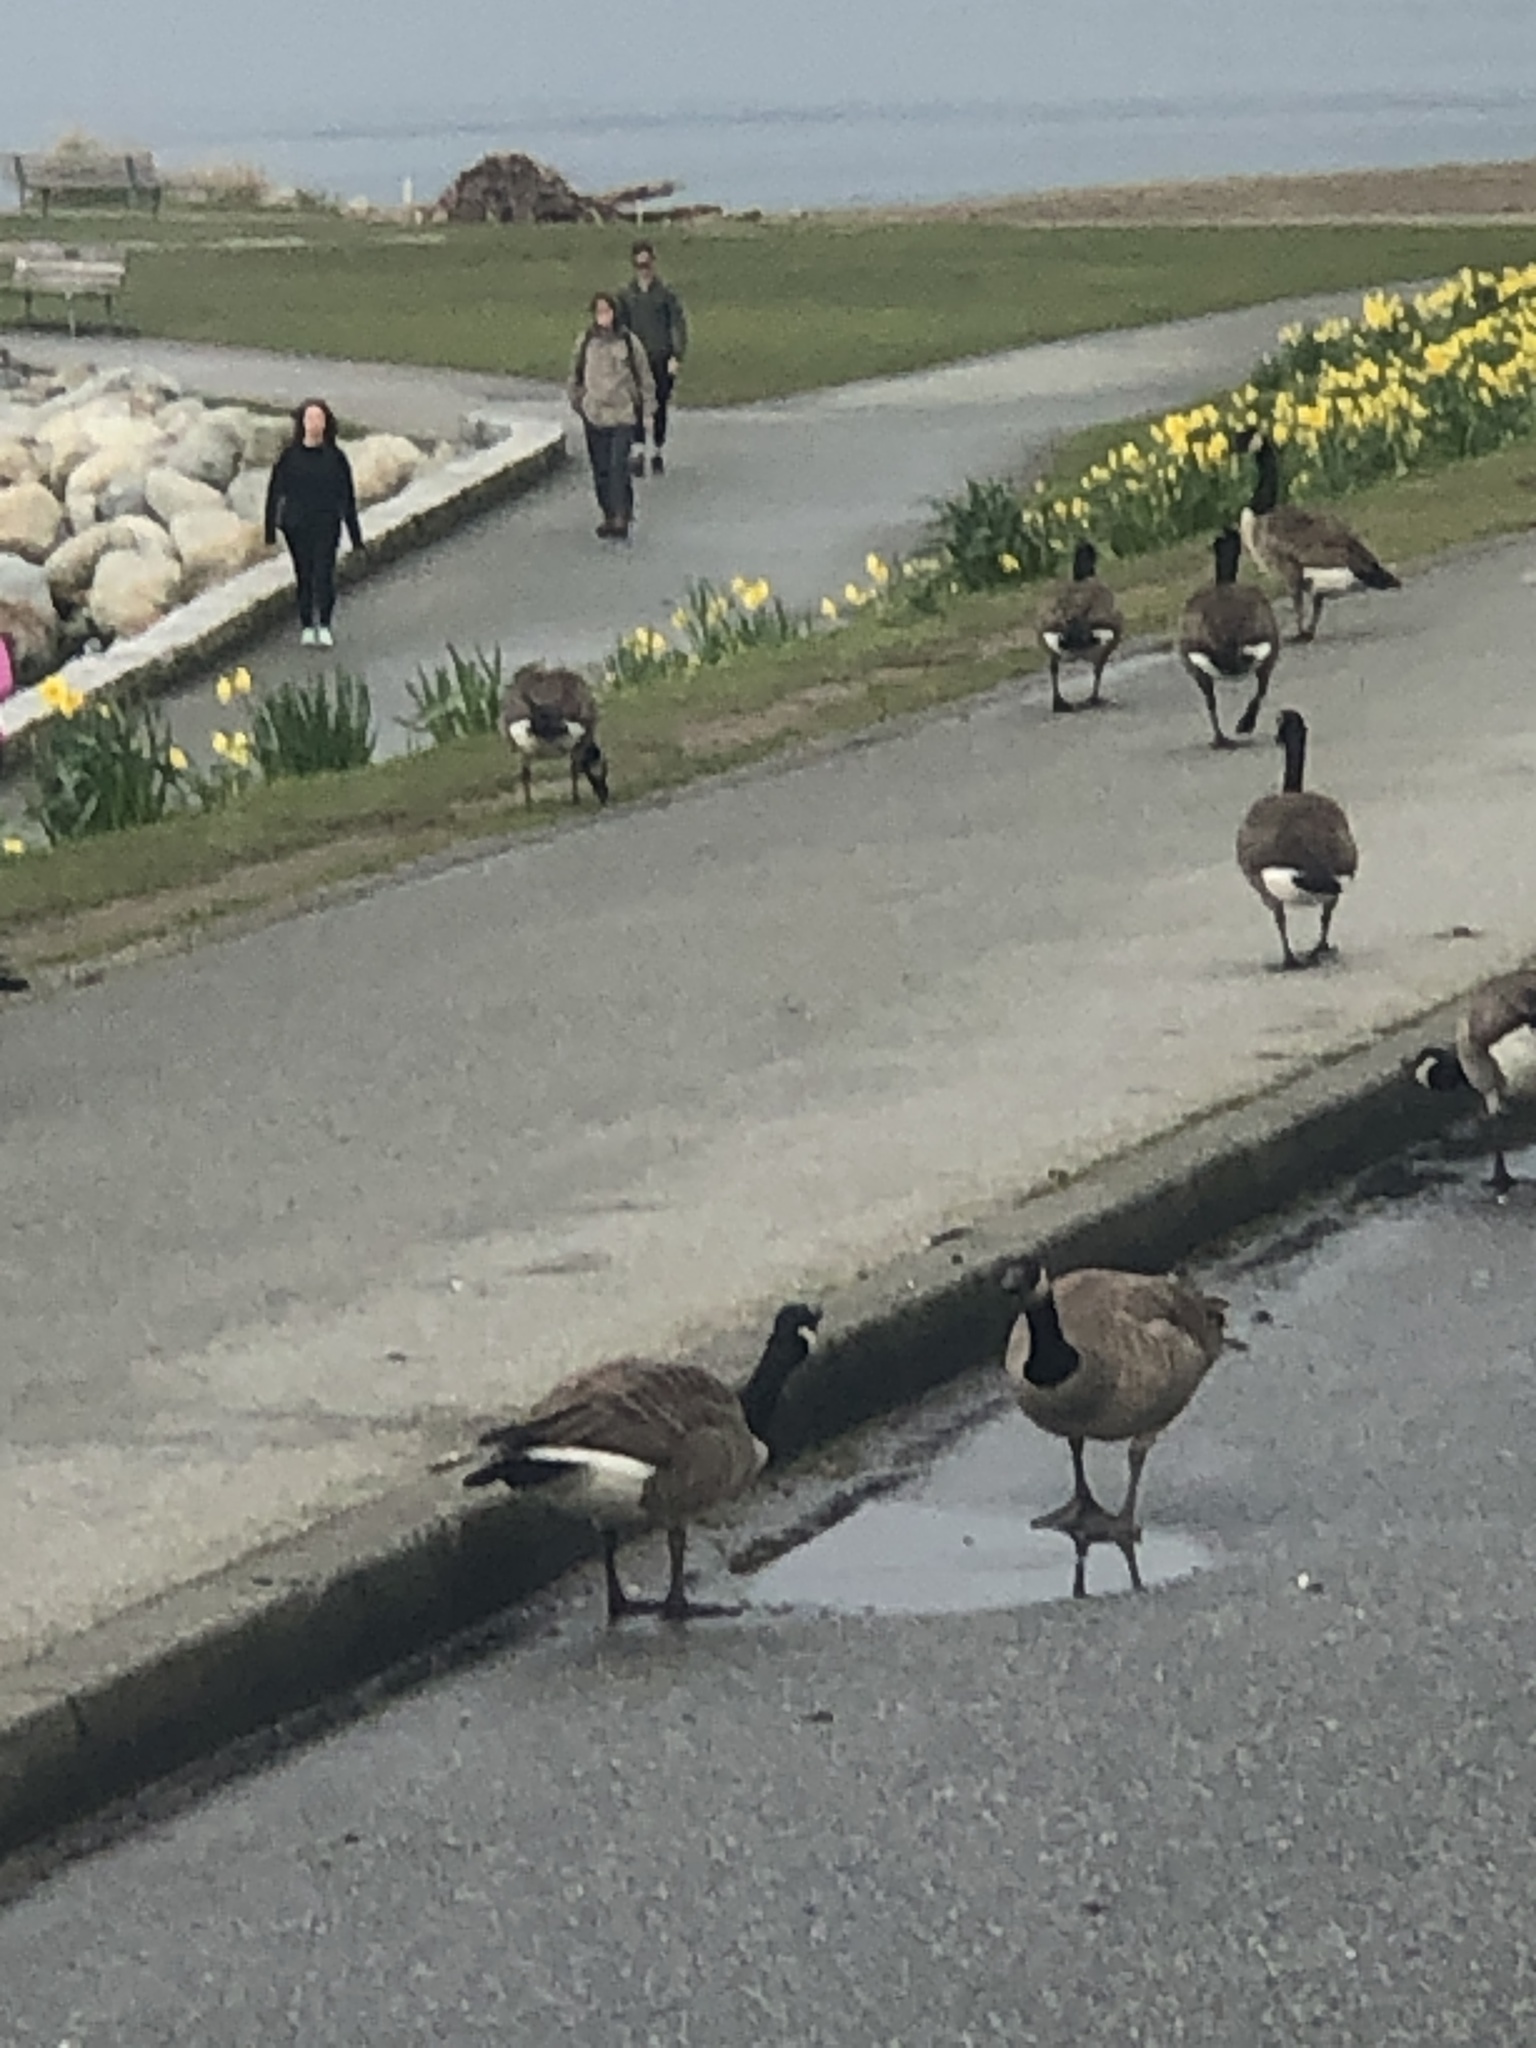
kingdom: Animalia
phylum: Chordata
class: Aves
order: Anseriformes
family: Anatidae
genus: Branta
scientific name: Branta canadensis
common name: Canada goose
